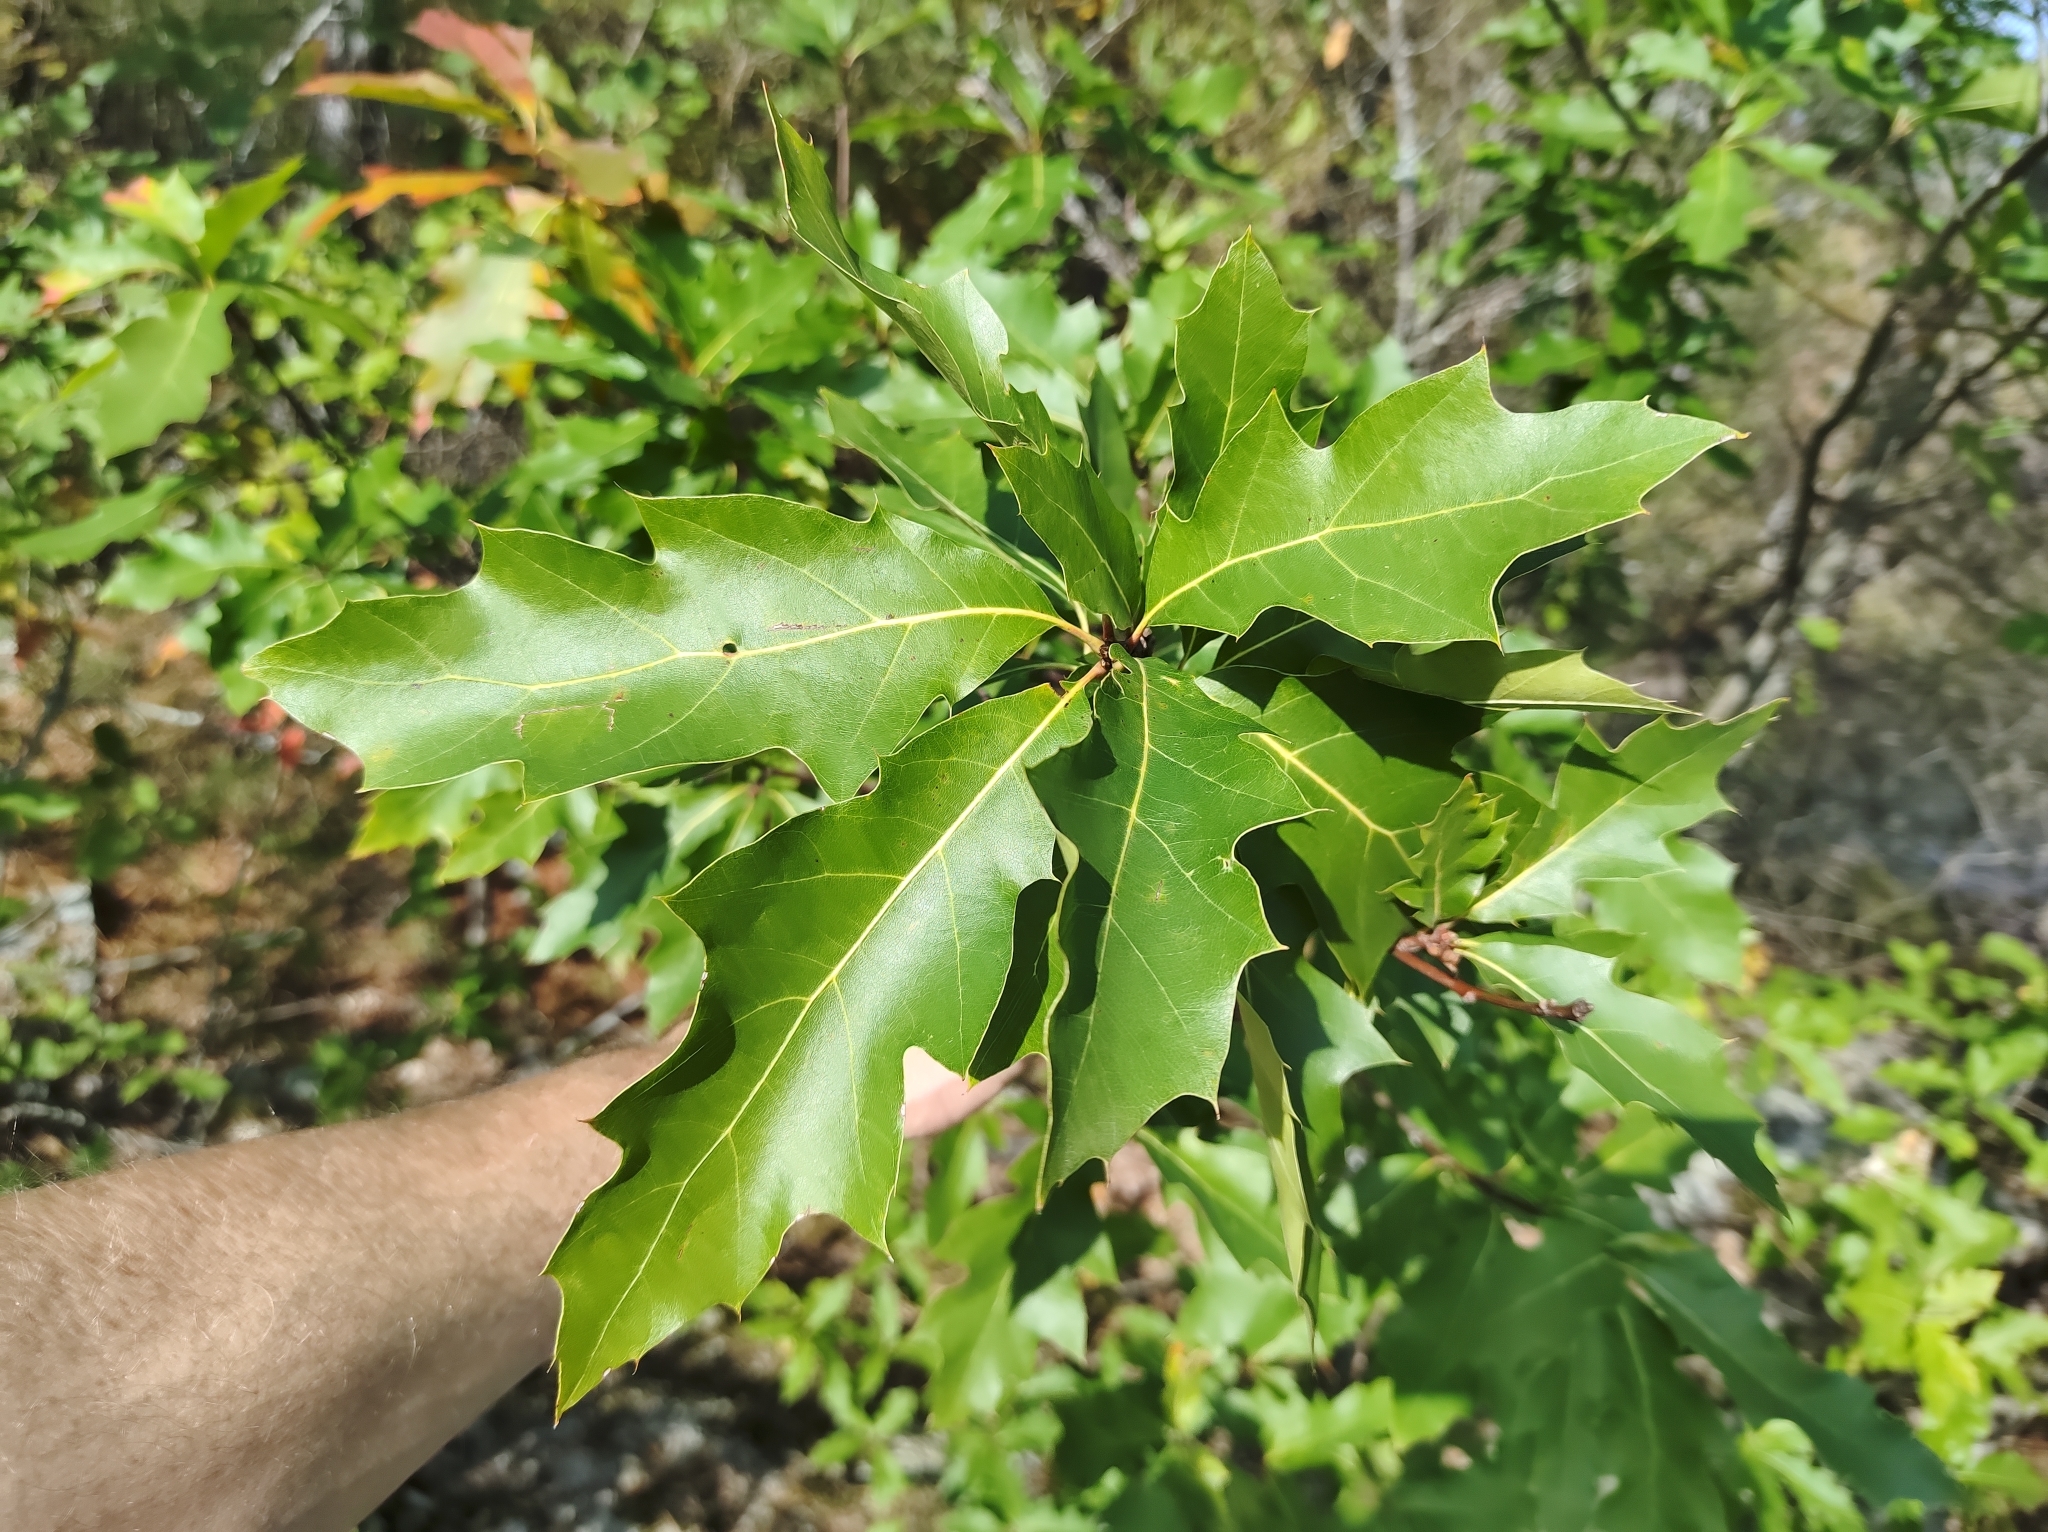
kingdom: Plantae
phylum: Tracheophyta
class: Magnoliopsida
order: Fagales
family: Fagaceae
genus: Quercus
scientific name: Quercus rubra
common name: Red oak
